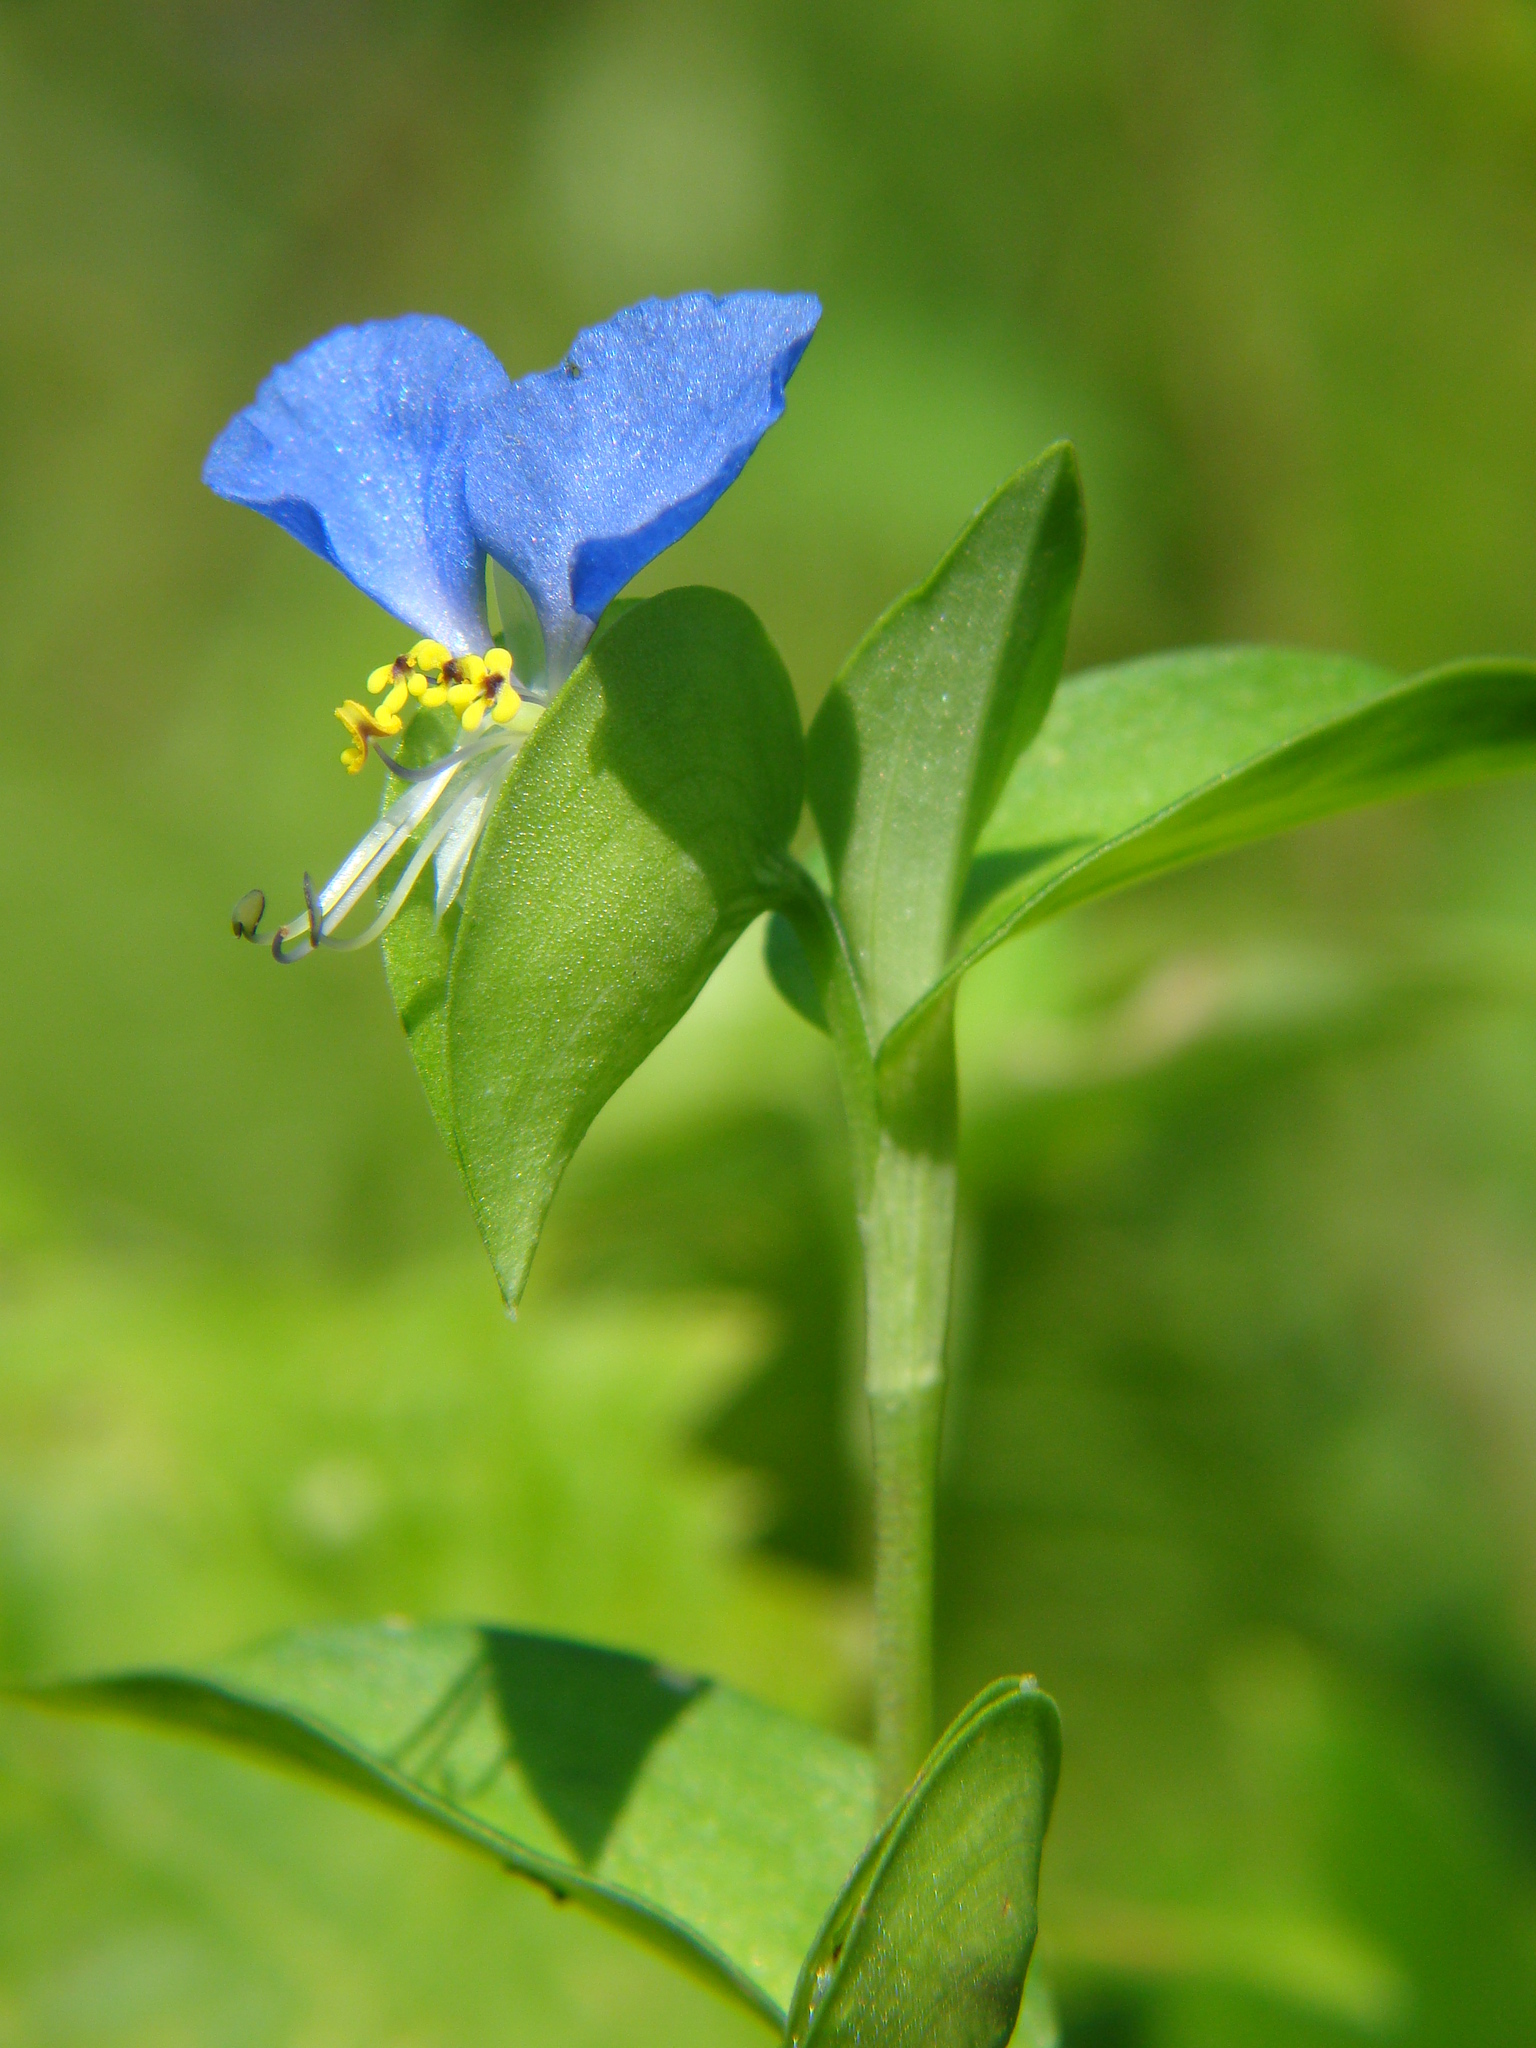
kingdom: Plantae
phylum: Tracheophyta
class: Liliopsida
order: Commelinales
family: Commelinaceae
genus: Commelina
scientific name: Commelina communis
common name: Asiatic dayflower
